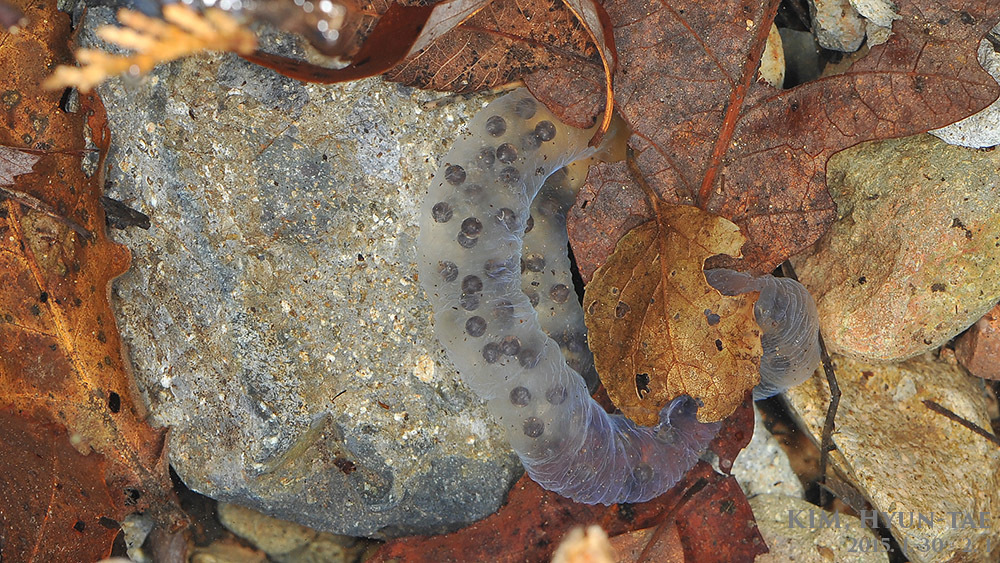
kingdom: Animalia
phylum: Chordata
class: Amphibia
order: Caudata
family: Hynobiidae
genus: Hynobius
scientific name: Hynobius notialis
